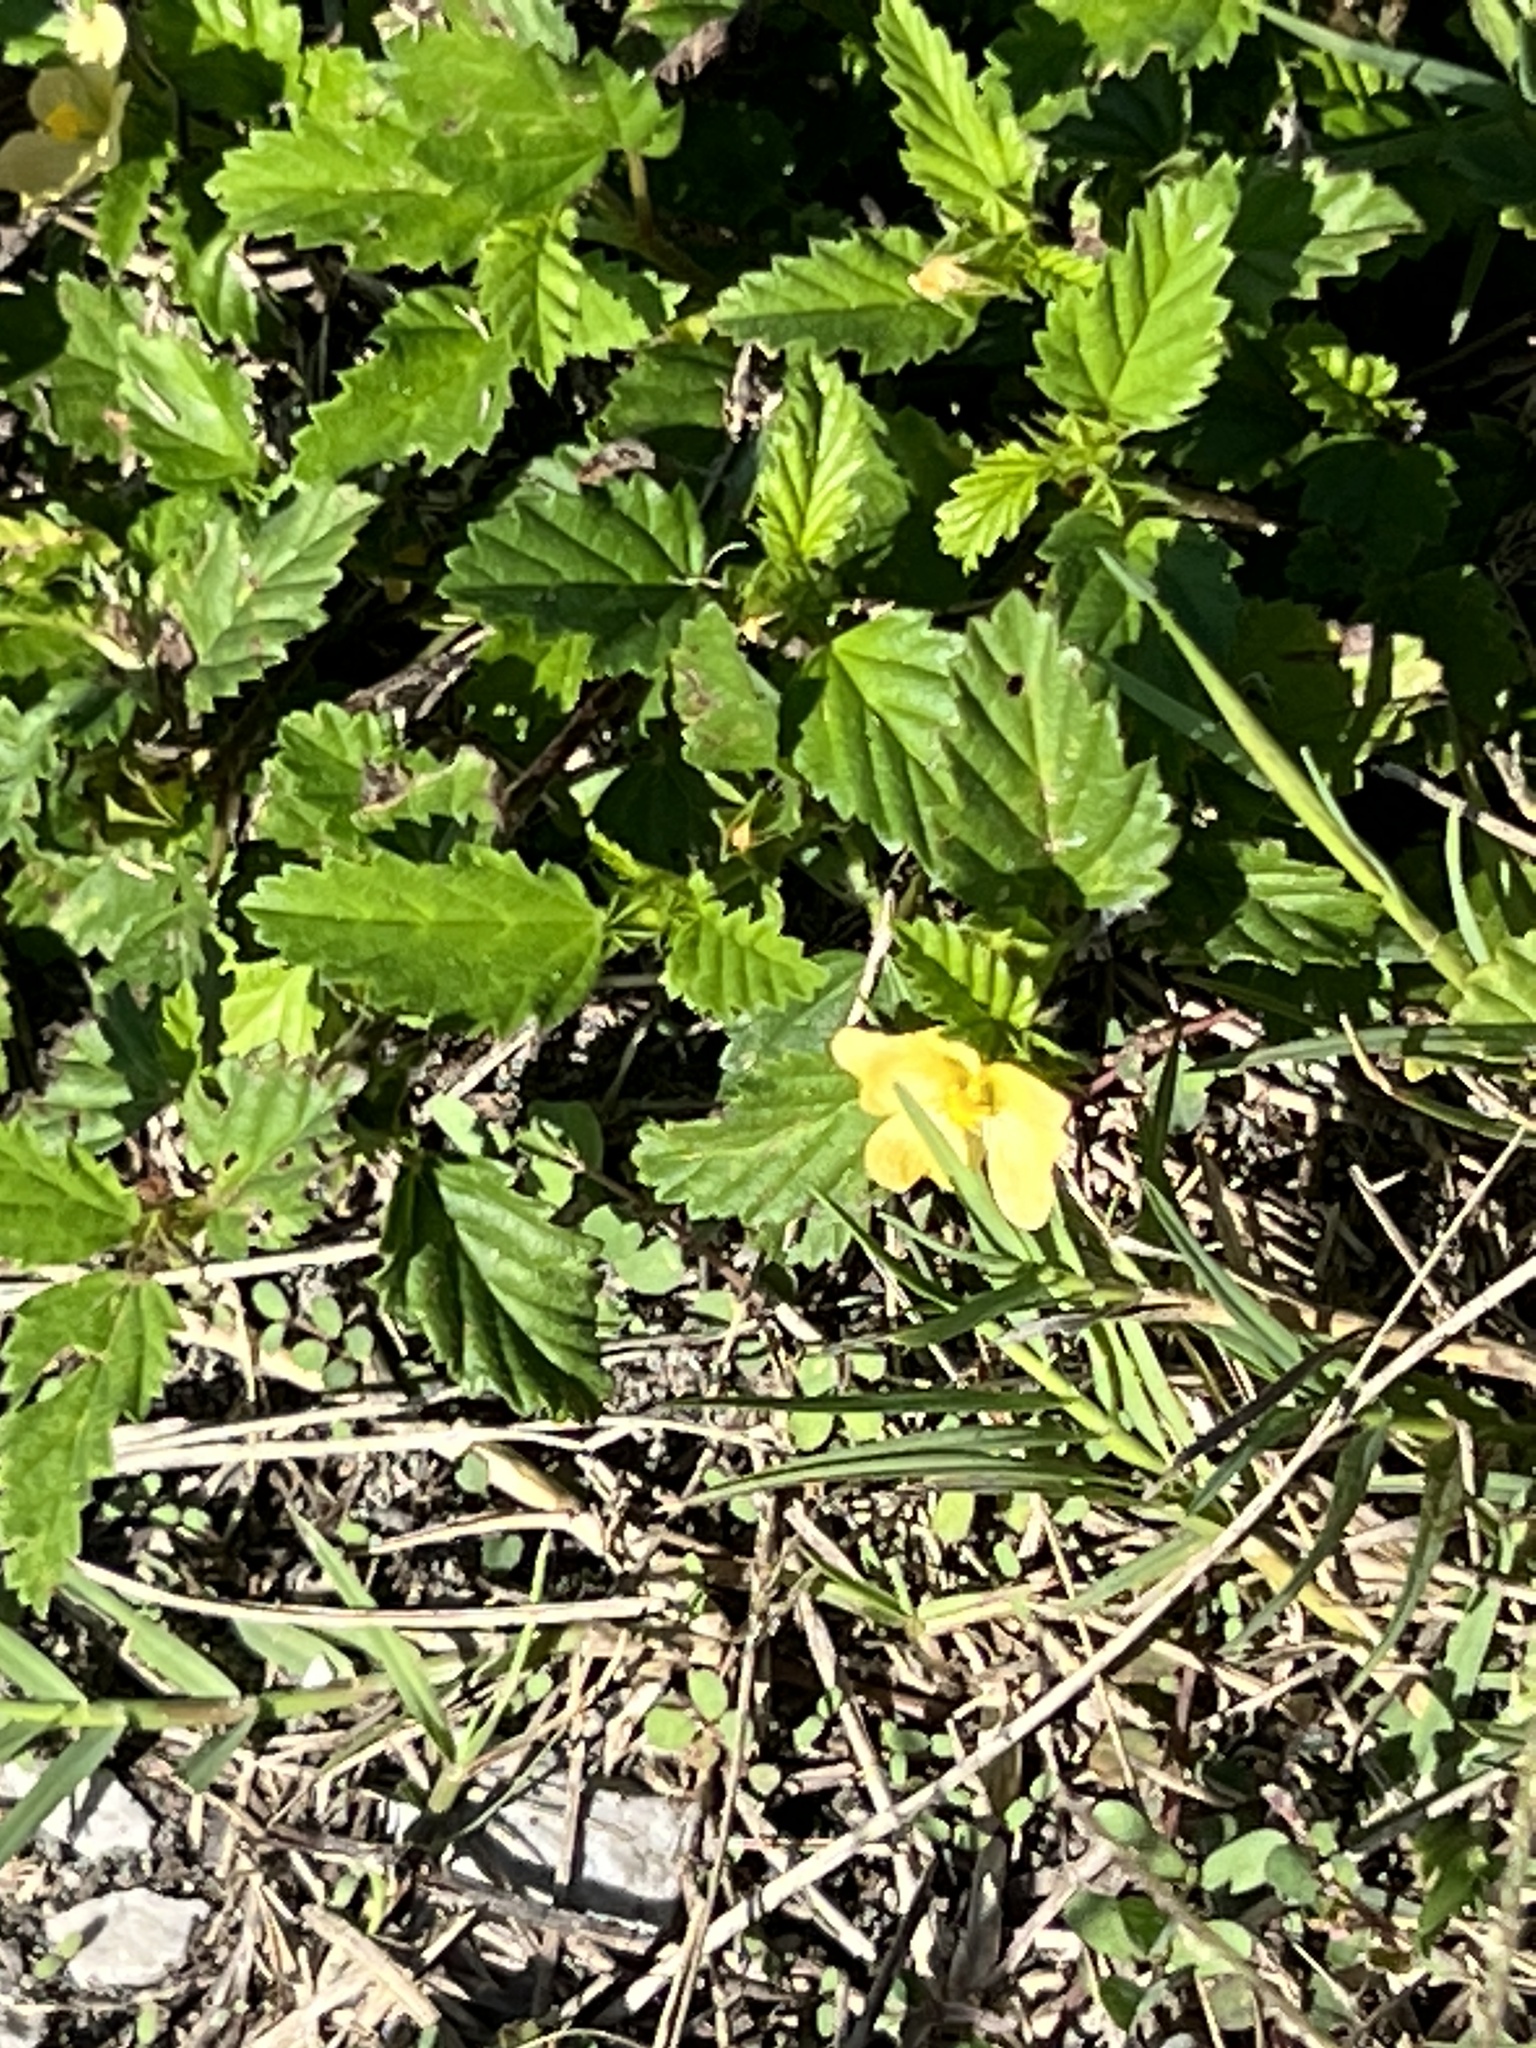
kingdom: Plantae
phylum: Tracheophyta
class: Magnoliopsida
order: Malvales
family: Malvaceae
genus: Malvastrum
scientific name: Malvastrum coromandelianum
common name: Threelobe false mallow
